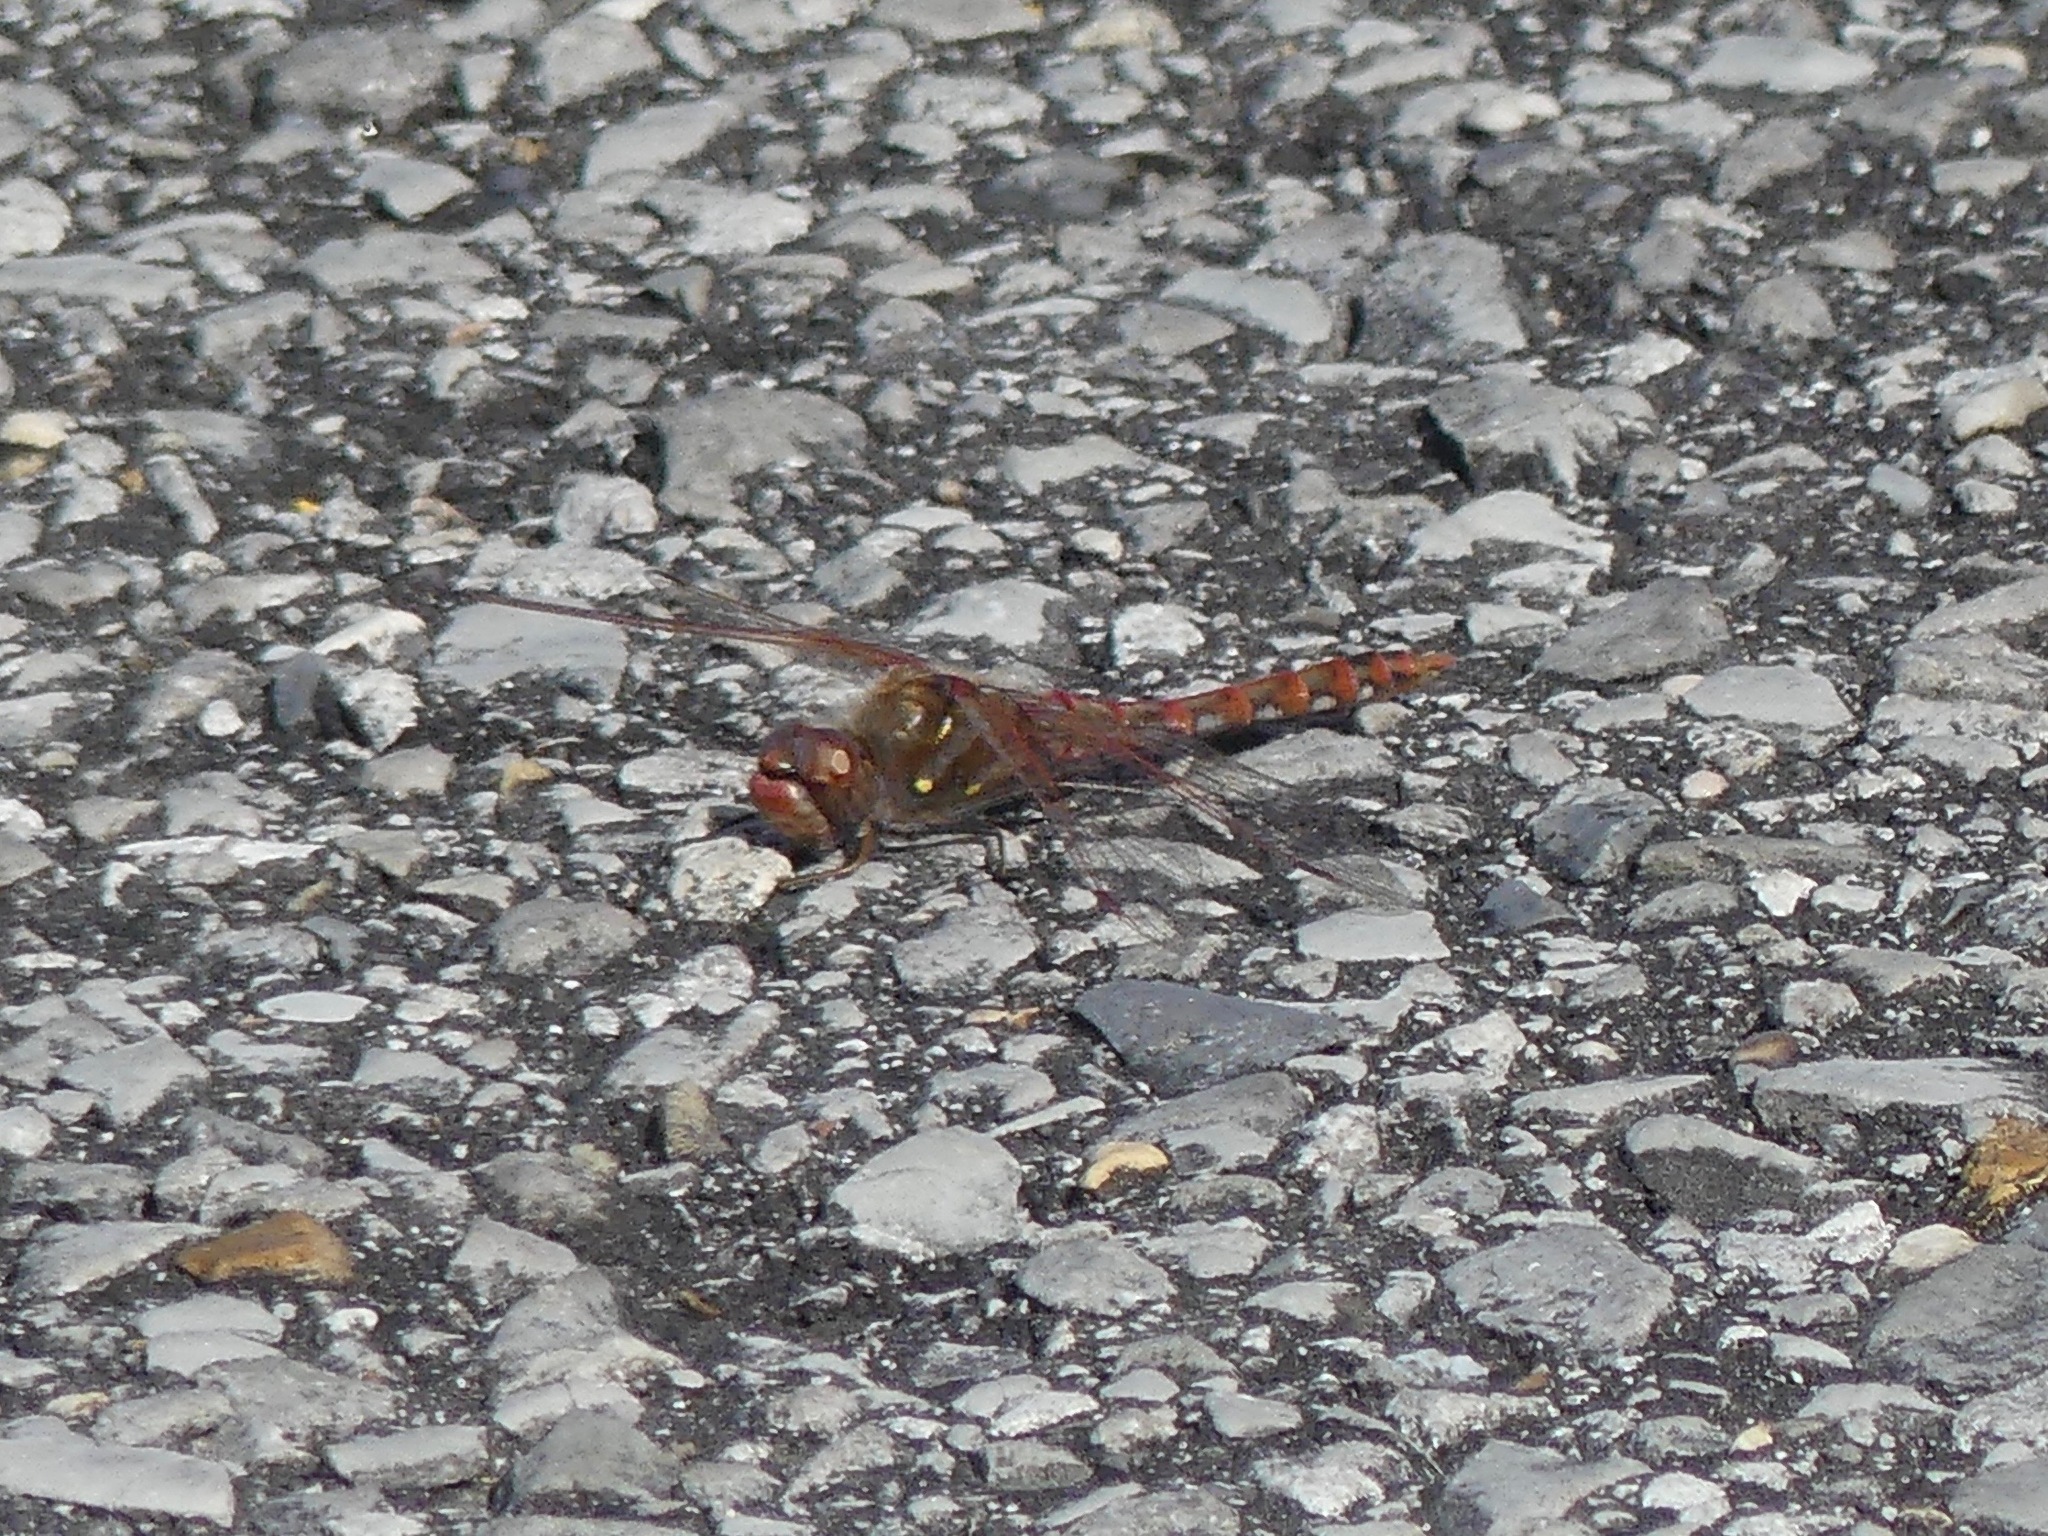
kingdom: Animalia
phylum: Arthropoda
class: Insecta
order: Odonata
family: Libellulidae
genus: Sympetrum
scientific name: Sympetrum corruptum
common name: Variegated meadowhawk
